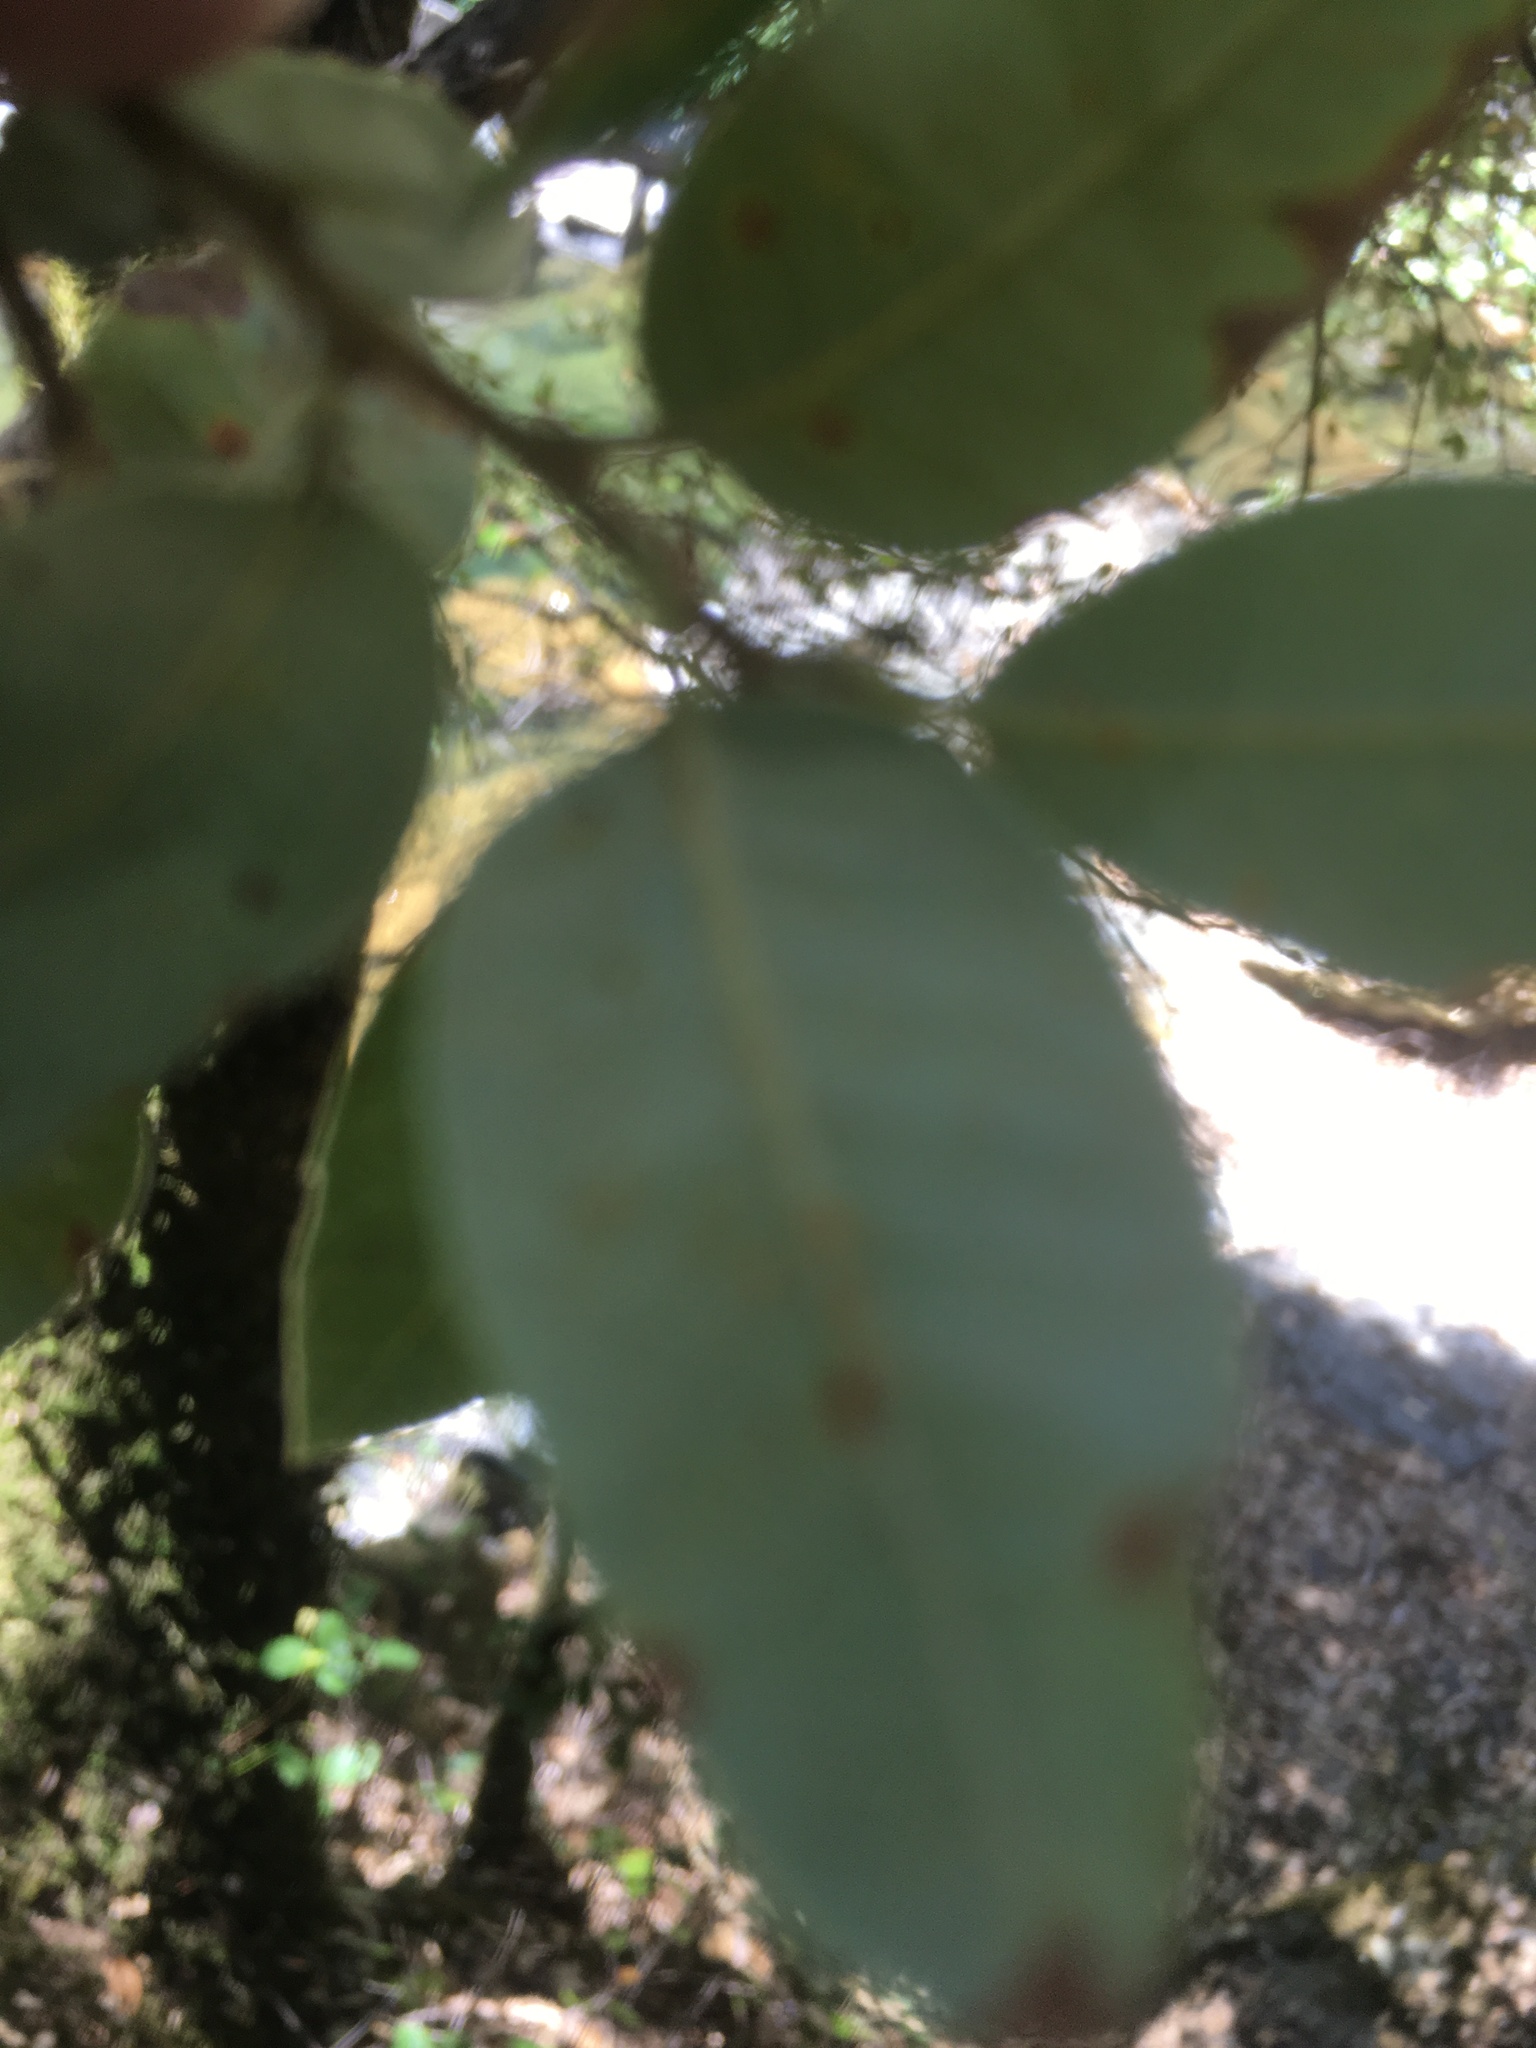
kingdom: Plantae
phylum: Tracheophyta
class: Magnoliopsida
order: Fagales
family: Fagaceae
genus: Quercus
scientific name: Quercus chrysolepis
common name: Canyon live oak
